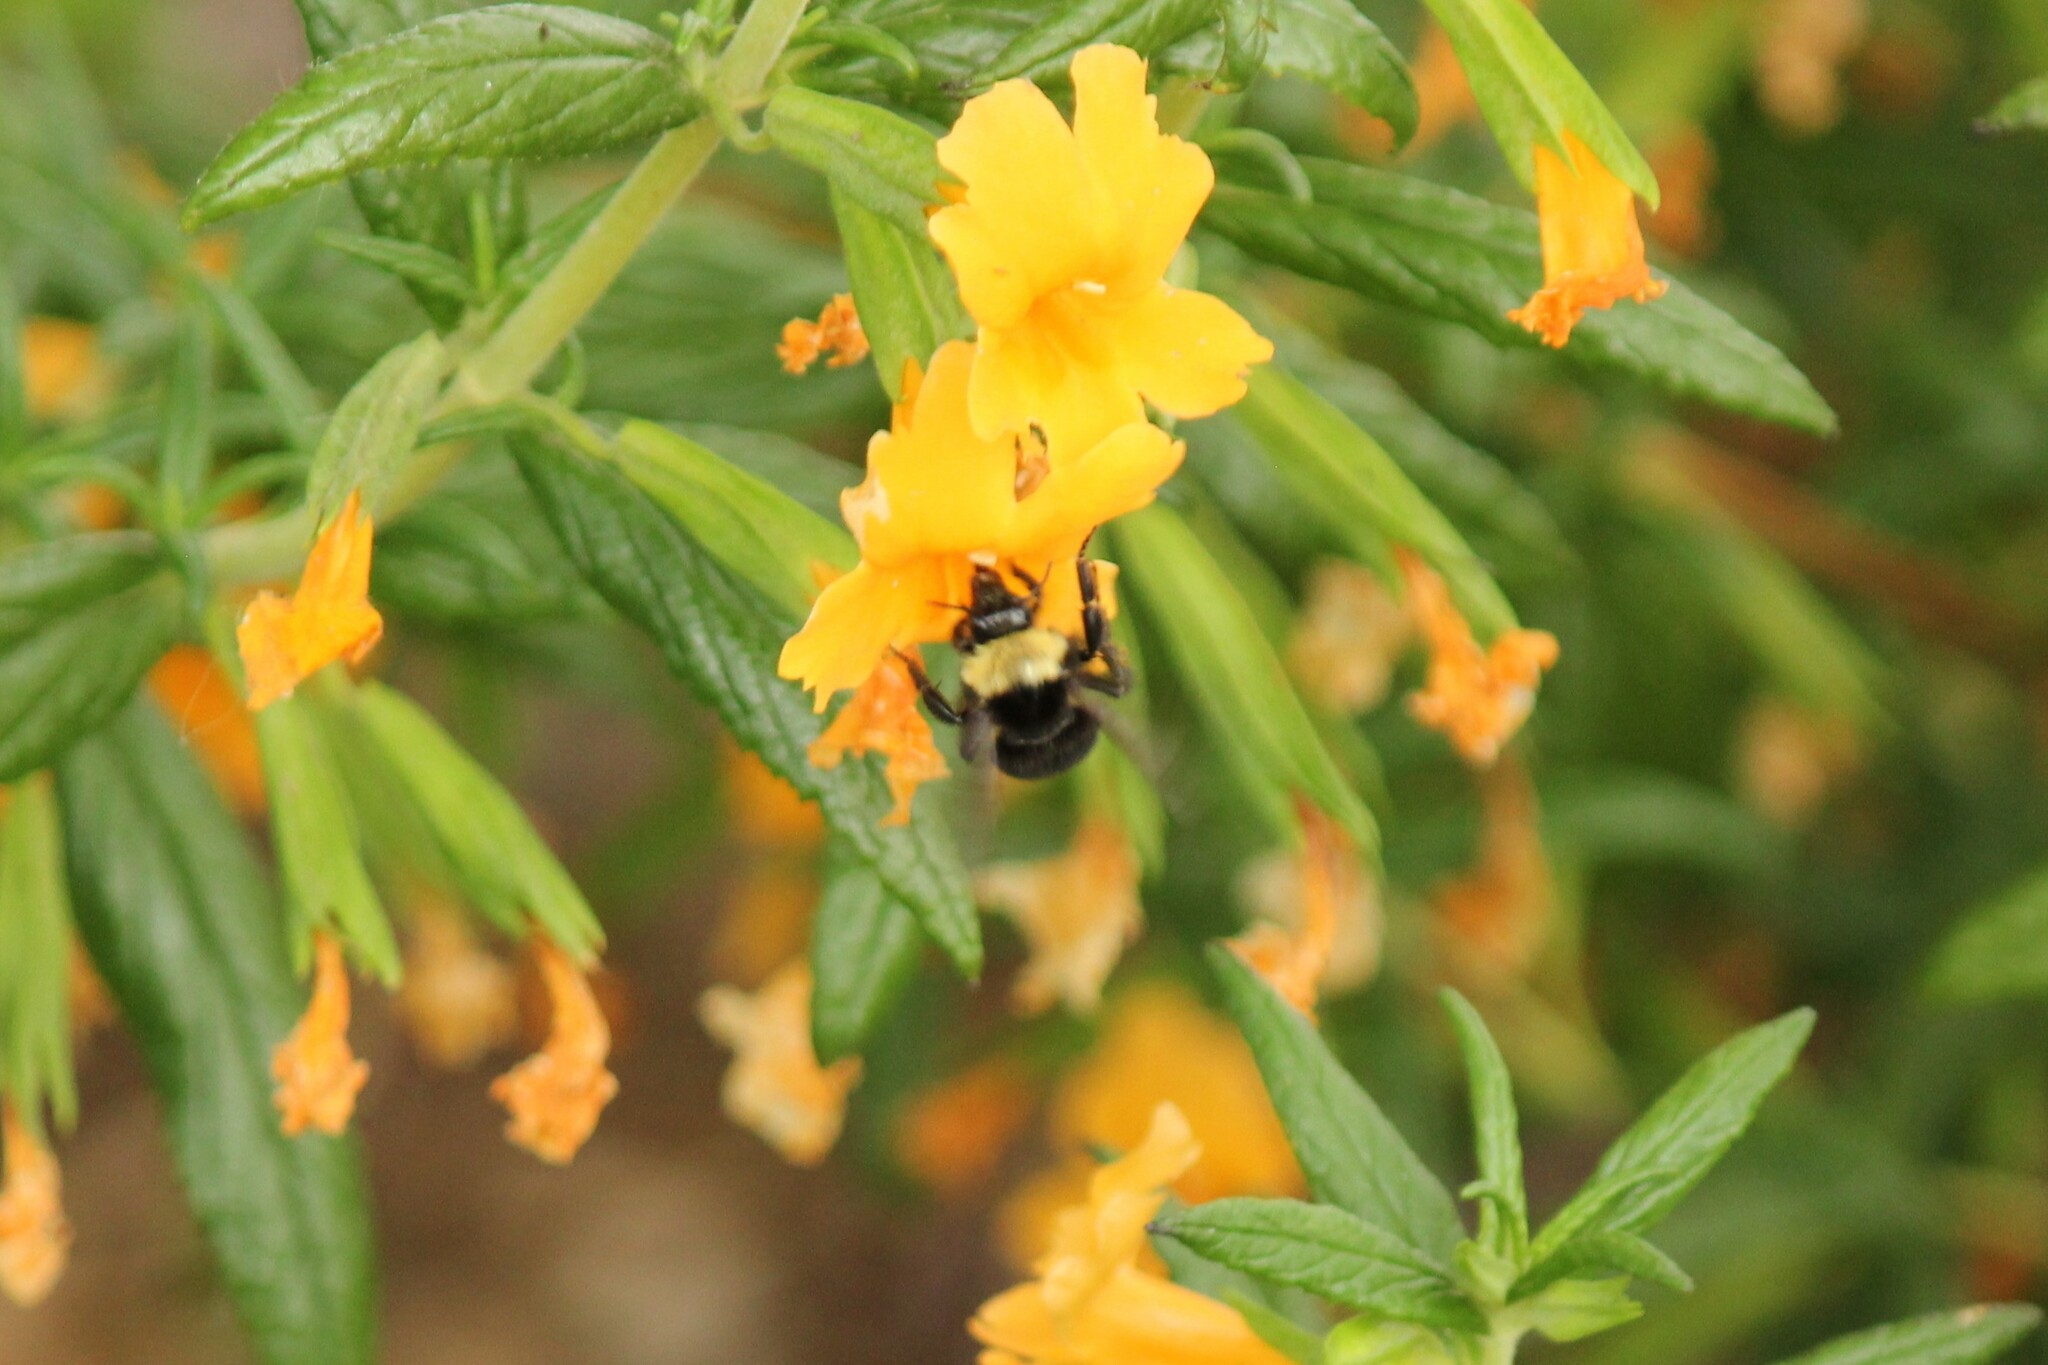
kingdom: Animalia
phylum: Arthropoda
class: Insecta
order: Hymenoptera
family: Apidae
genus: Bombus
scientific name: Bombus californicus
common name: California bumble bee
